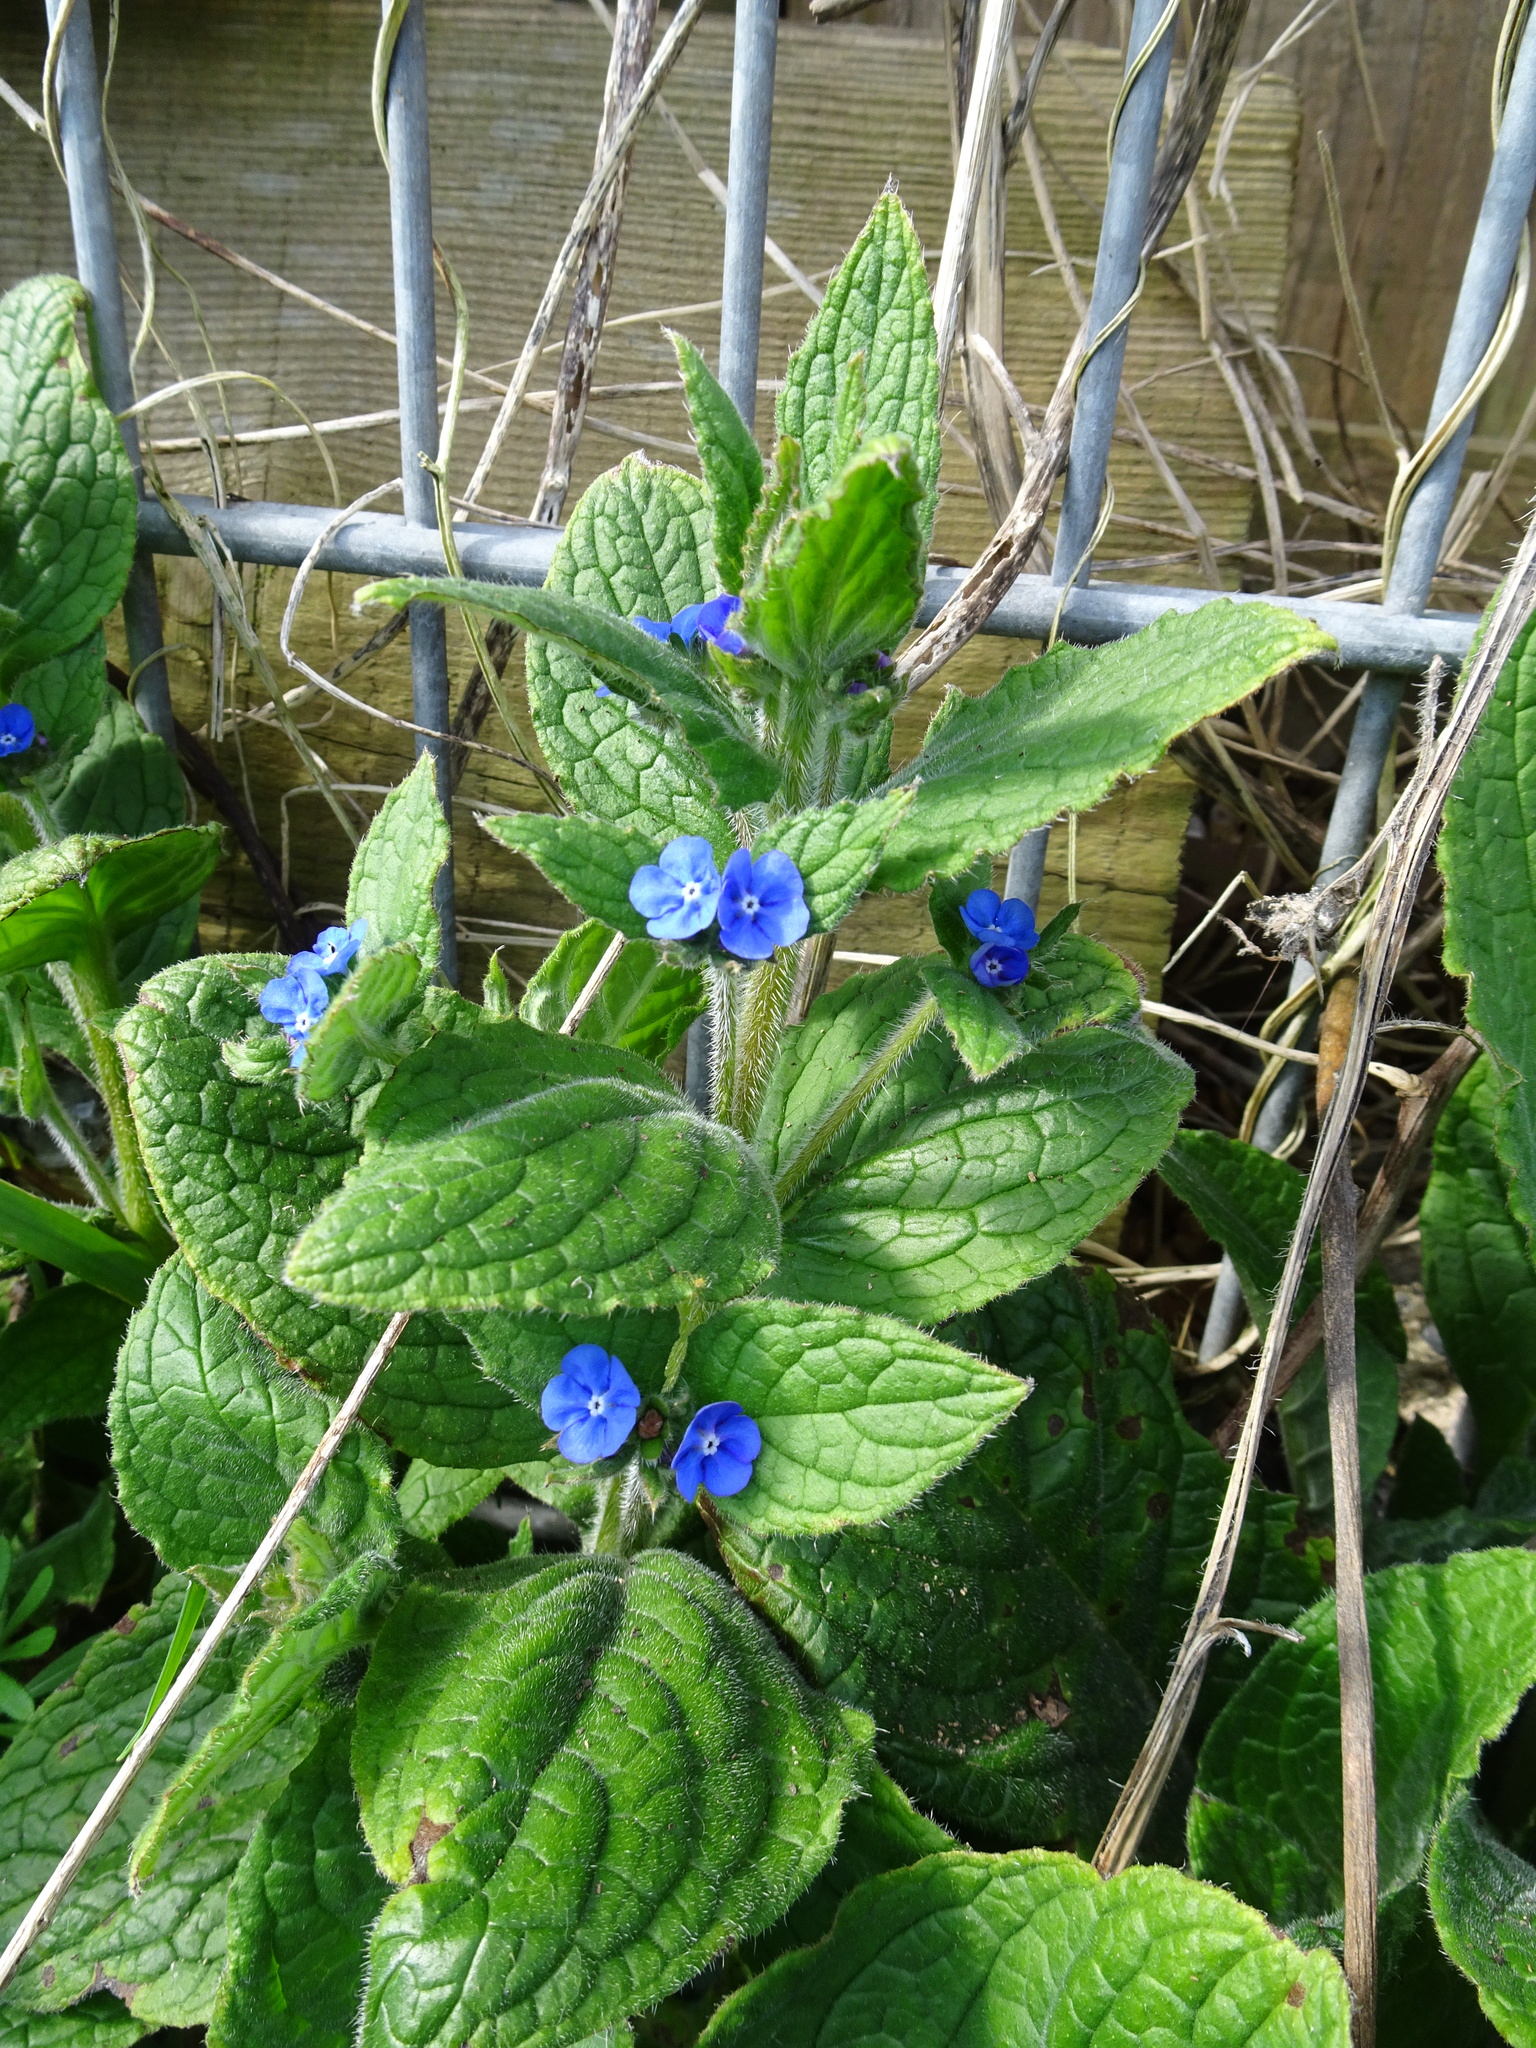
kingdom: Plantae
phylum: Tracheophyta
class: Magnoliopsida
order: Boraginales
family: Boraginaceae
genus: Pentaglottis
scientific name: Pentaglottis sempervirens
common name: Green alkanet
